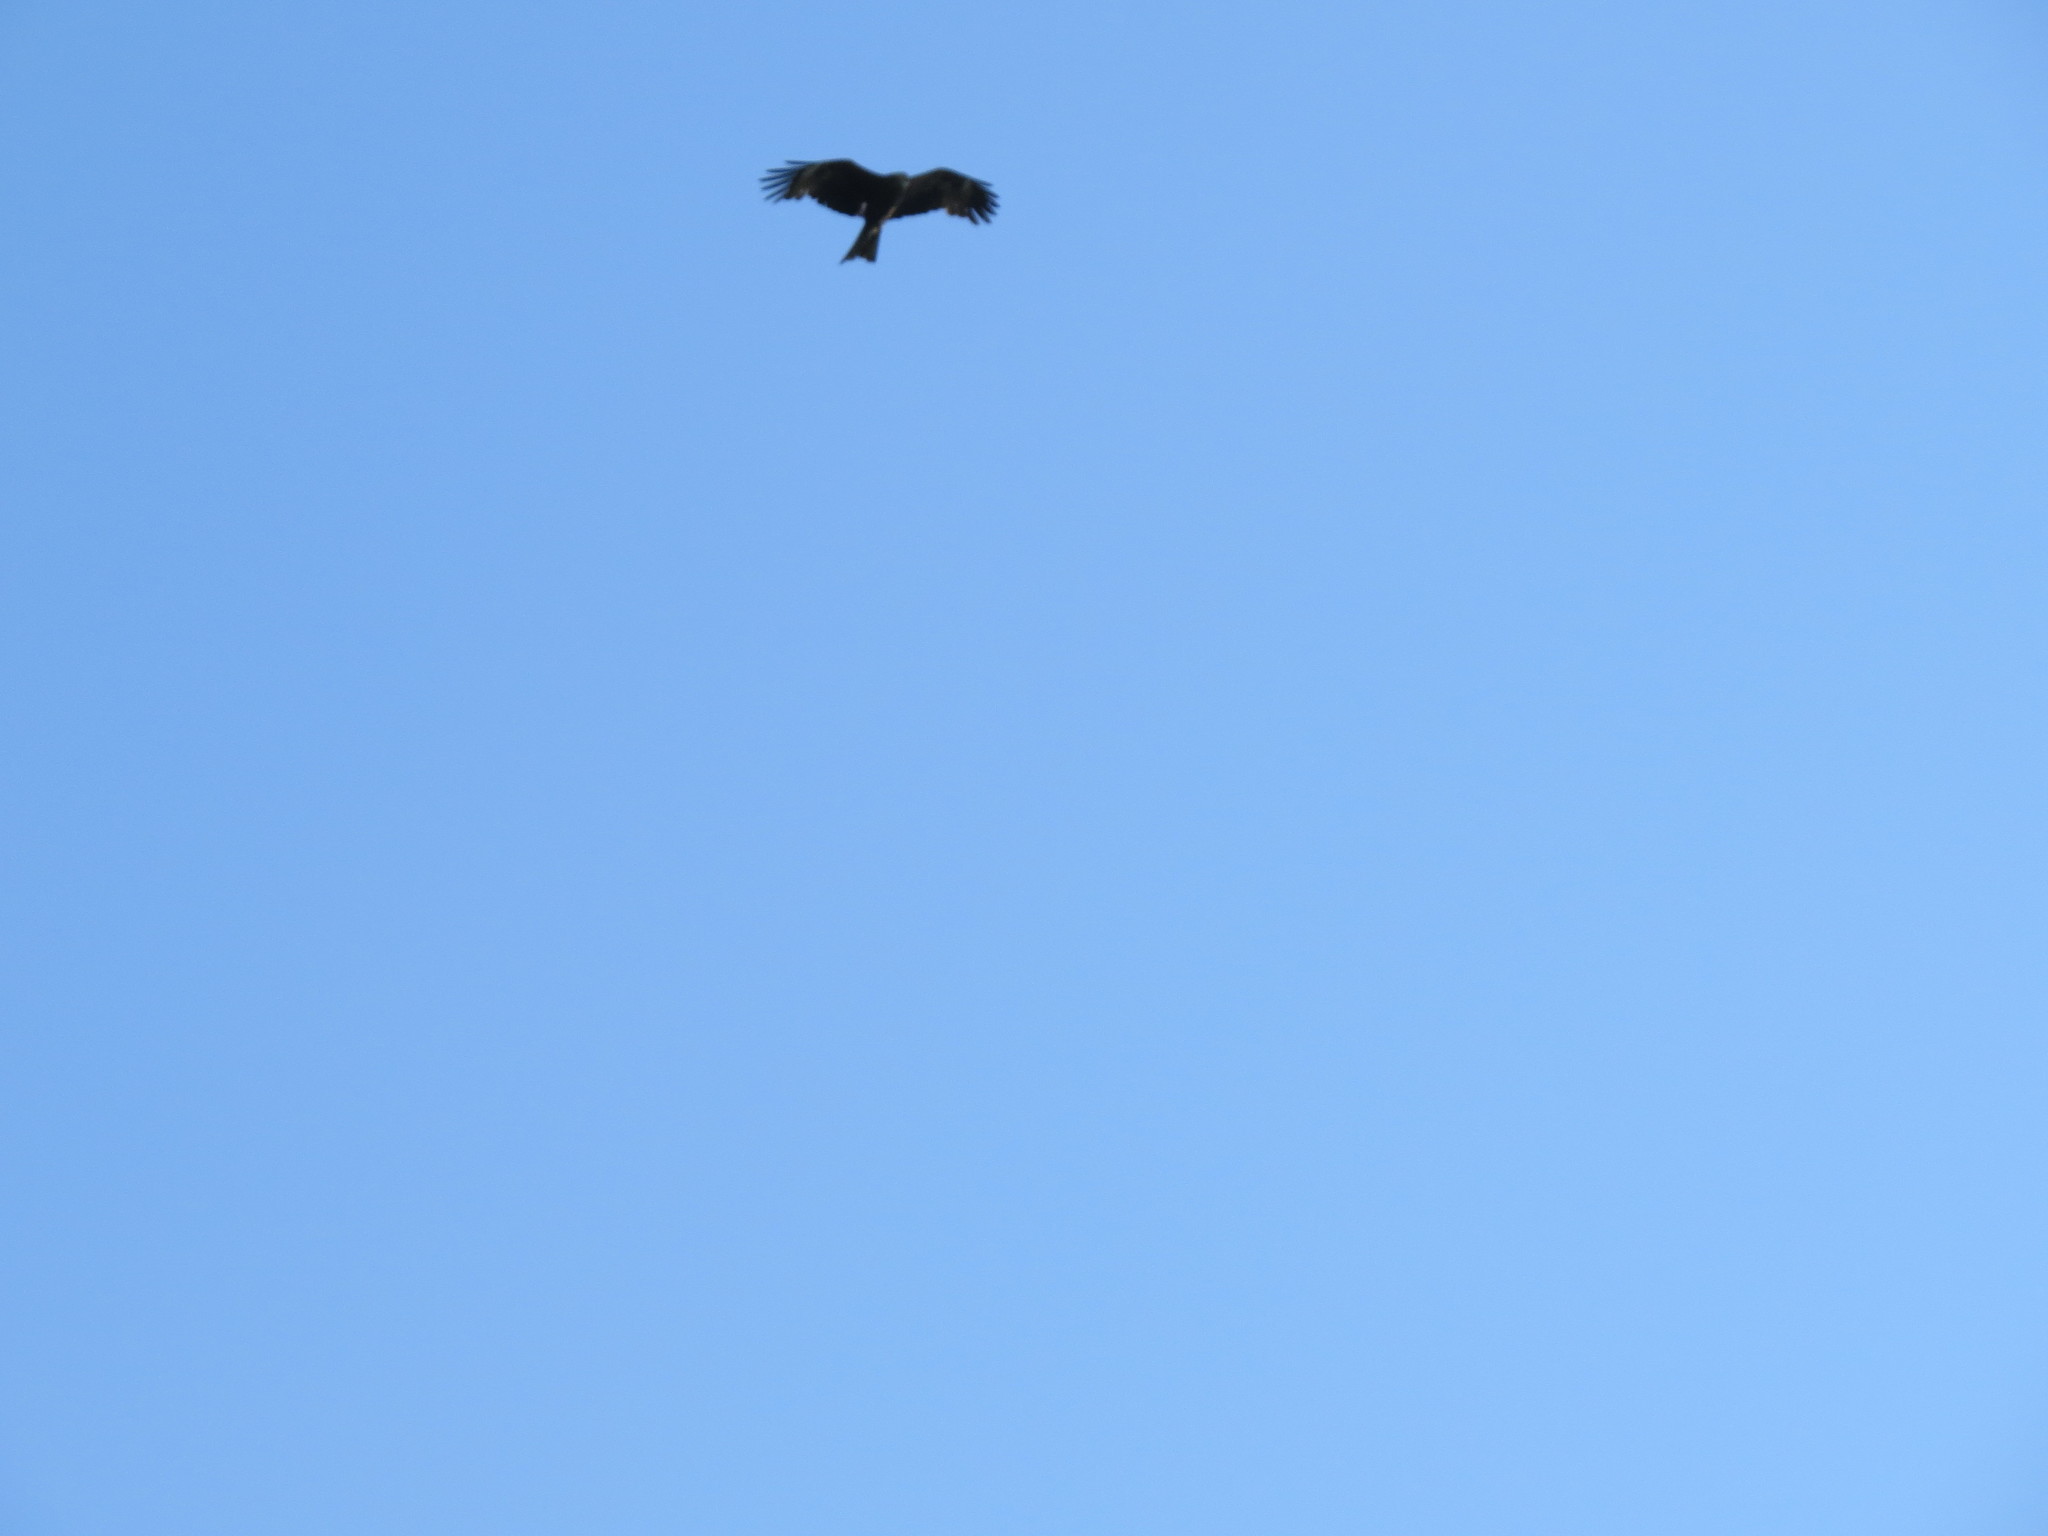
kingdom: Animalia
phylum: Chordata
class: Aves
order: Accipitriformes
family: Accipitridae
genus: Milvus
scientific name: Milvus migrans
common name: Black kite
